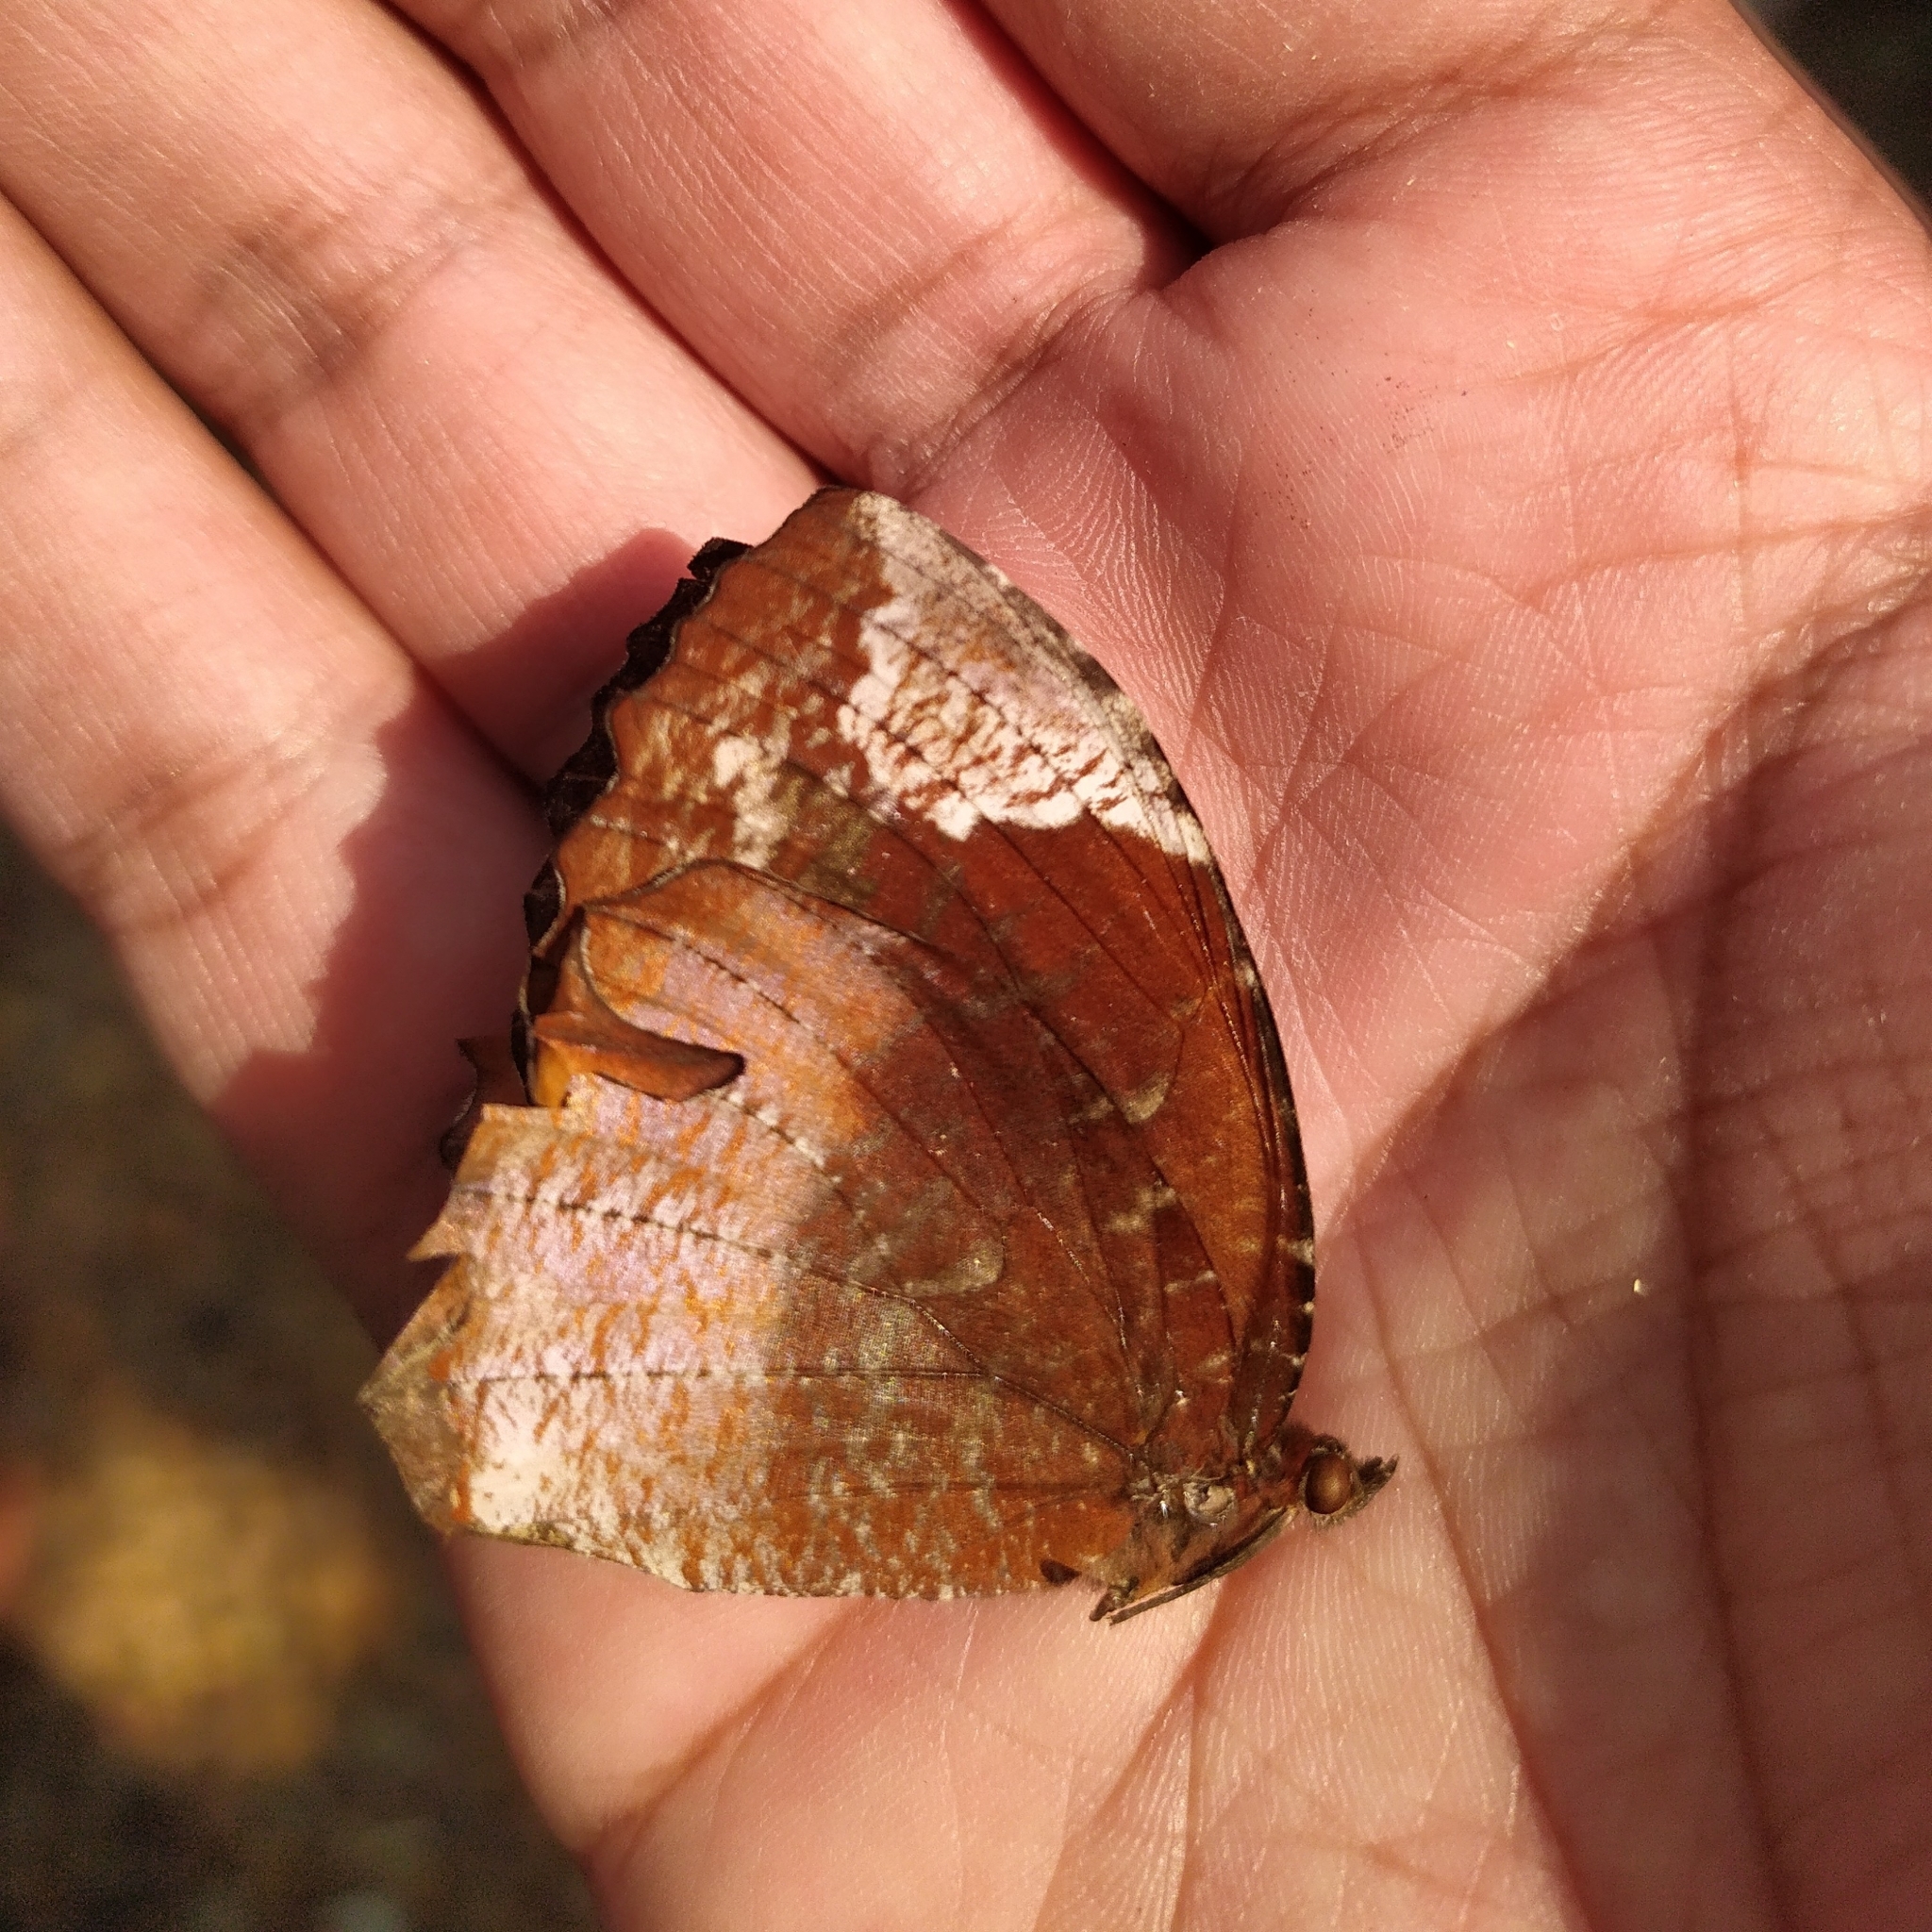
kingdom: Animalia
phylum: Arthropoda
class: Insecta
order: Lepidoptera
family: Nymphalidae
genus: Elymnias
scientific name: Elymnias caudata
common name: Tailed palmfly
